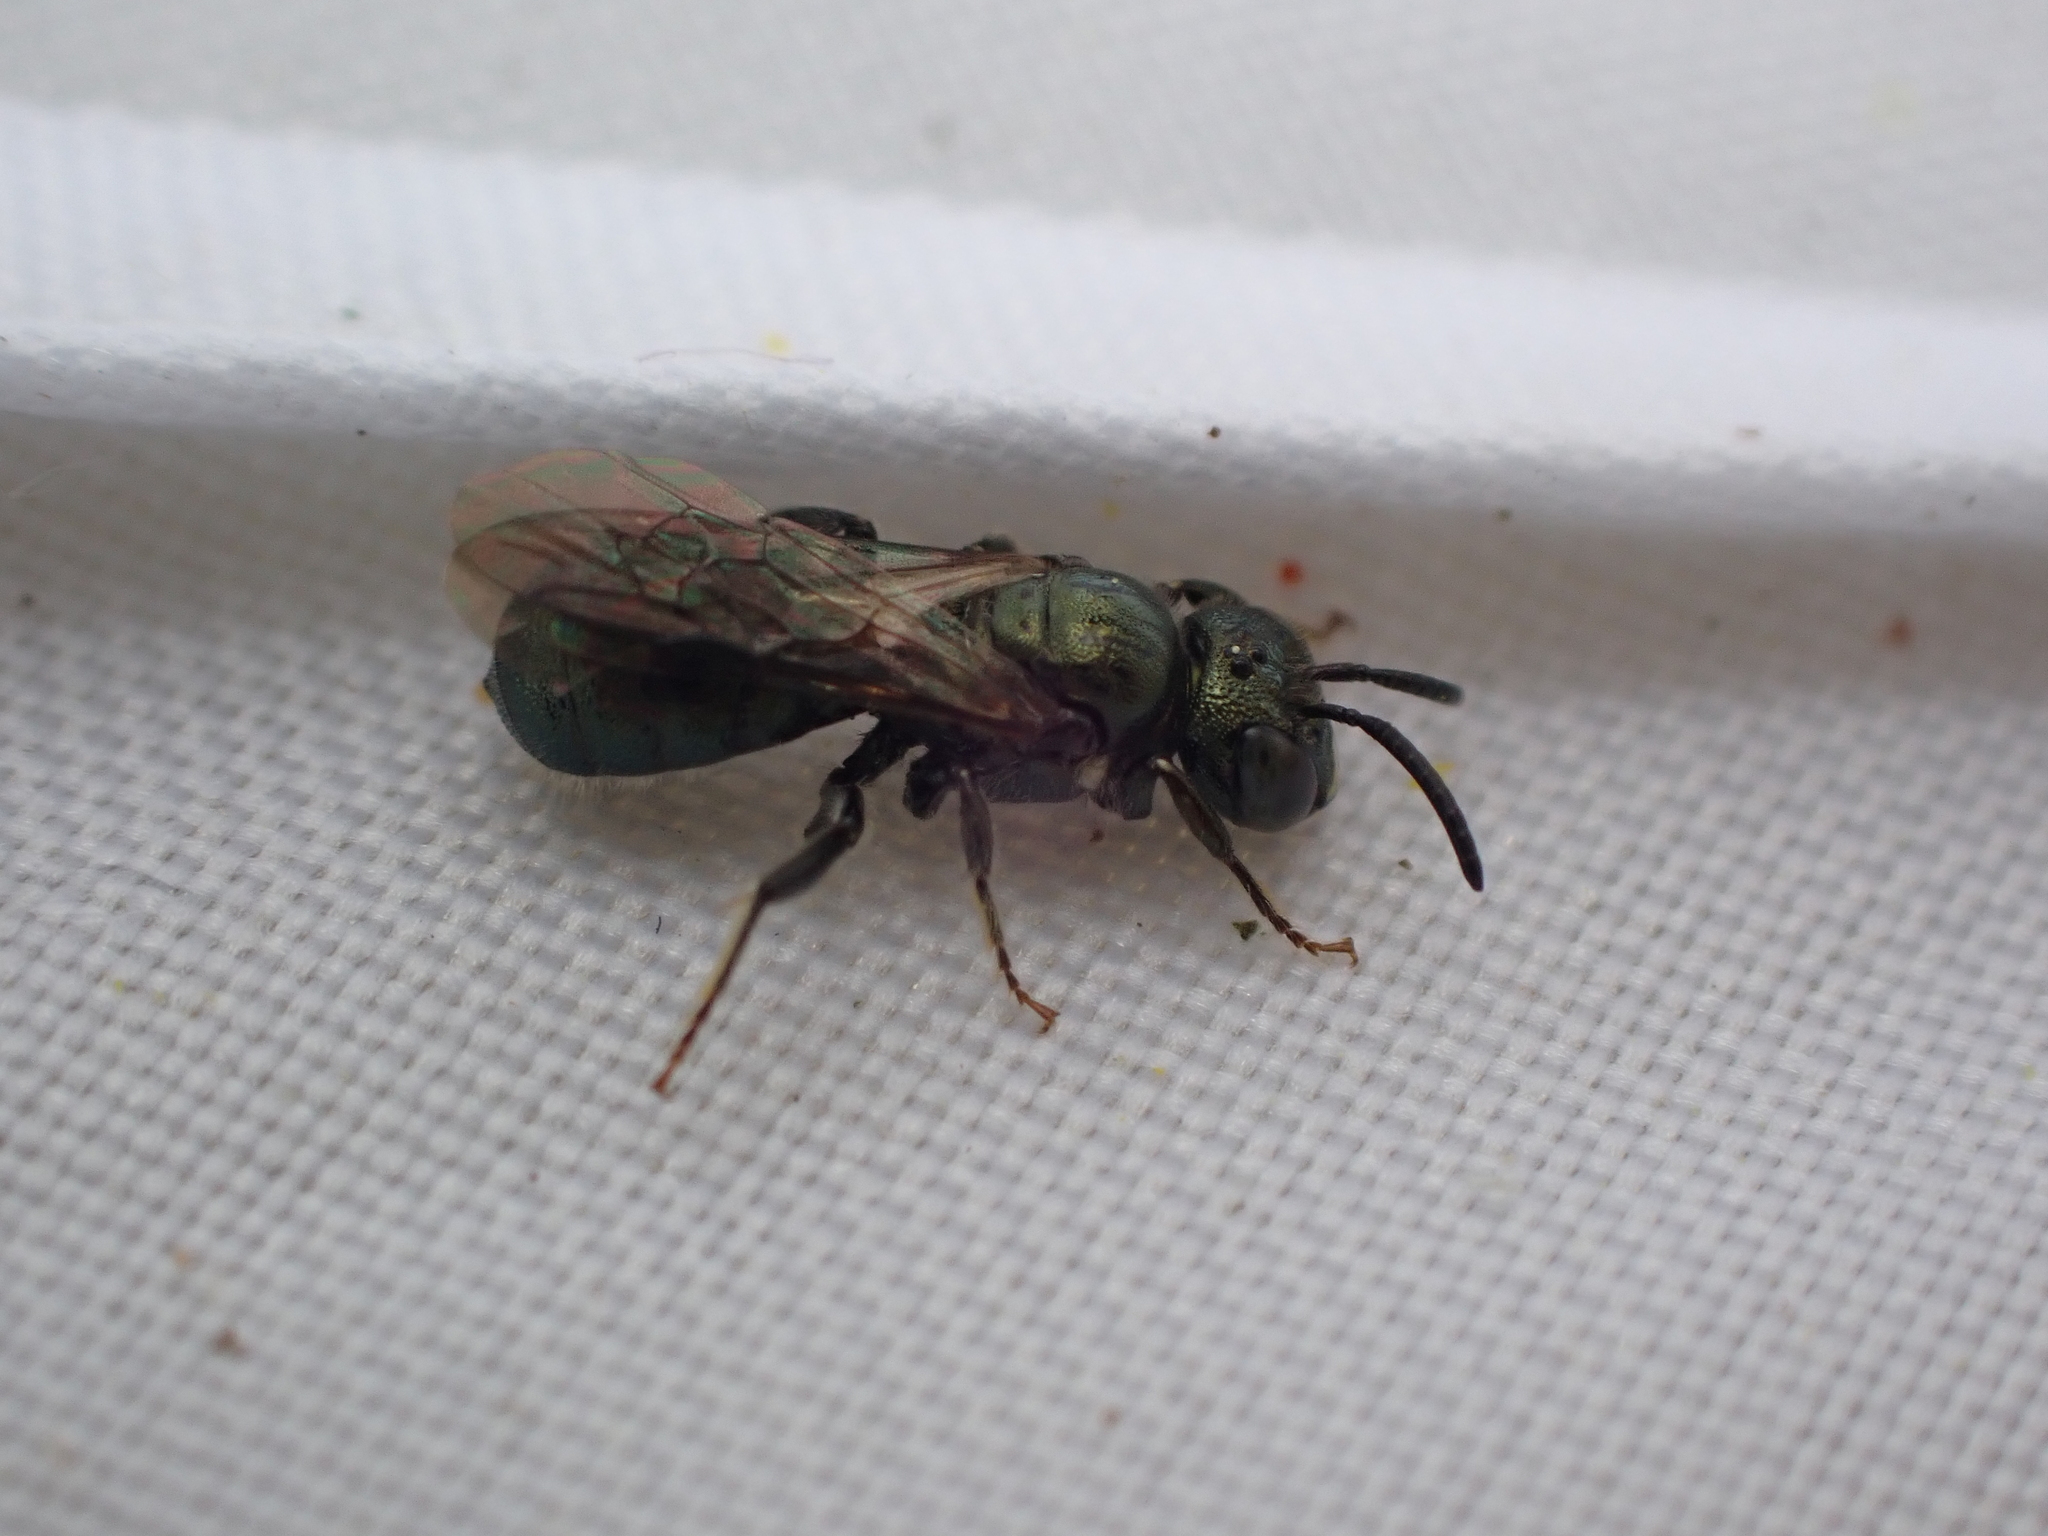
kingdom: Animalia
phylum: Arthropoda
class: Insecta
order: Hymenoptera
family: Apidae
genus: Ceratina
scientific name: Ceratina calcarata
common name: Spurred carpenter bee
